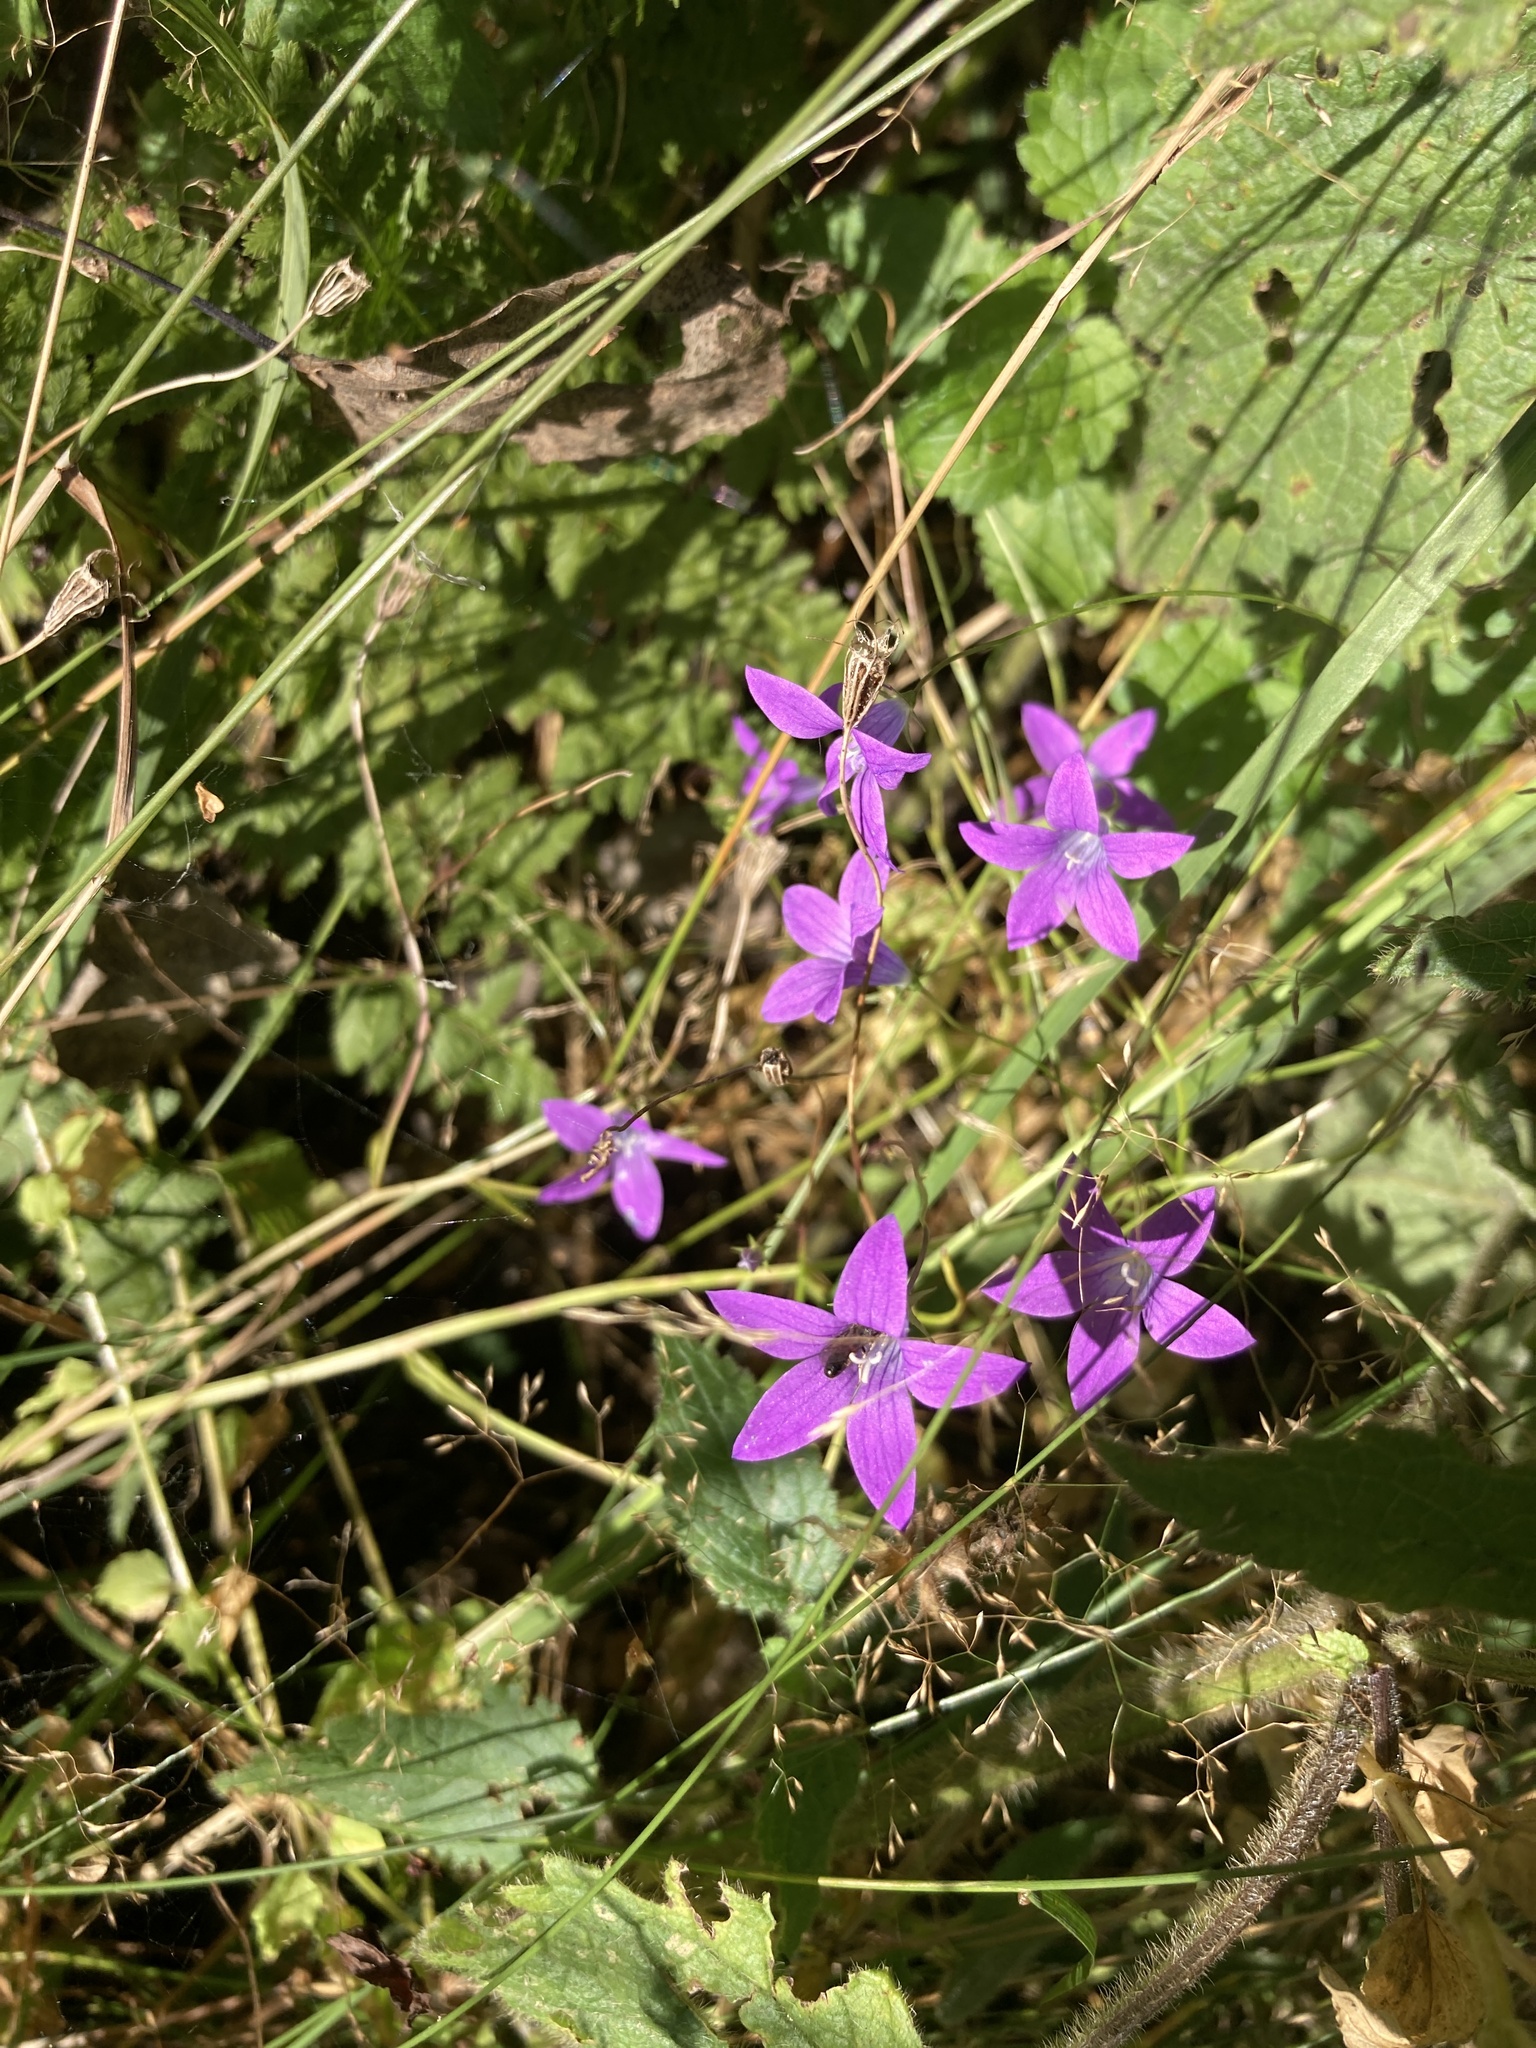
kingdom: Plantae
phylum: Tracheophyta
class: Magnoliopsida
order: Asterales
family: Campanulaceae
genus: Campanula
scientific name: Campanula patula
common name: Spreading bellflower
